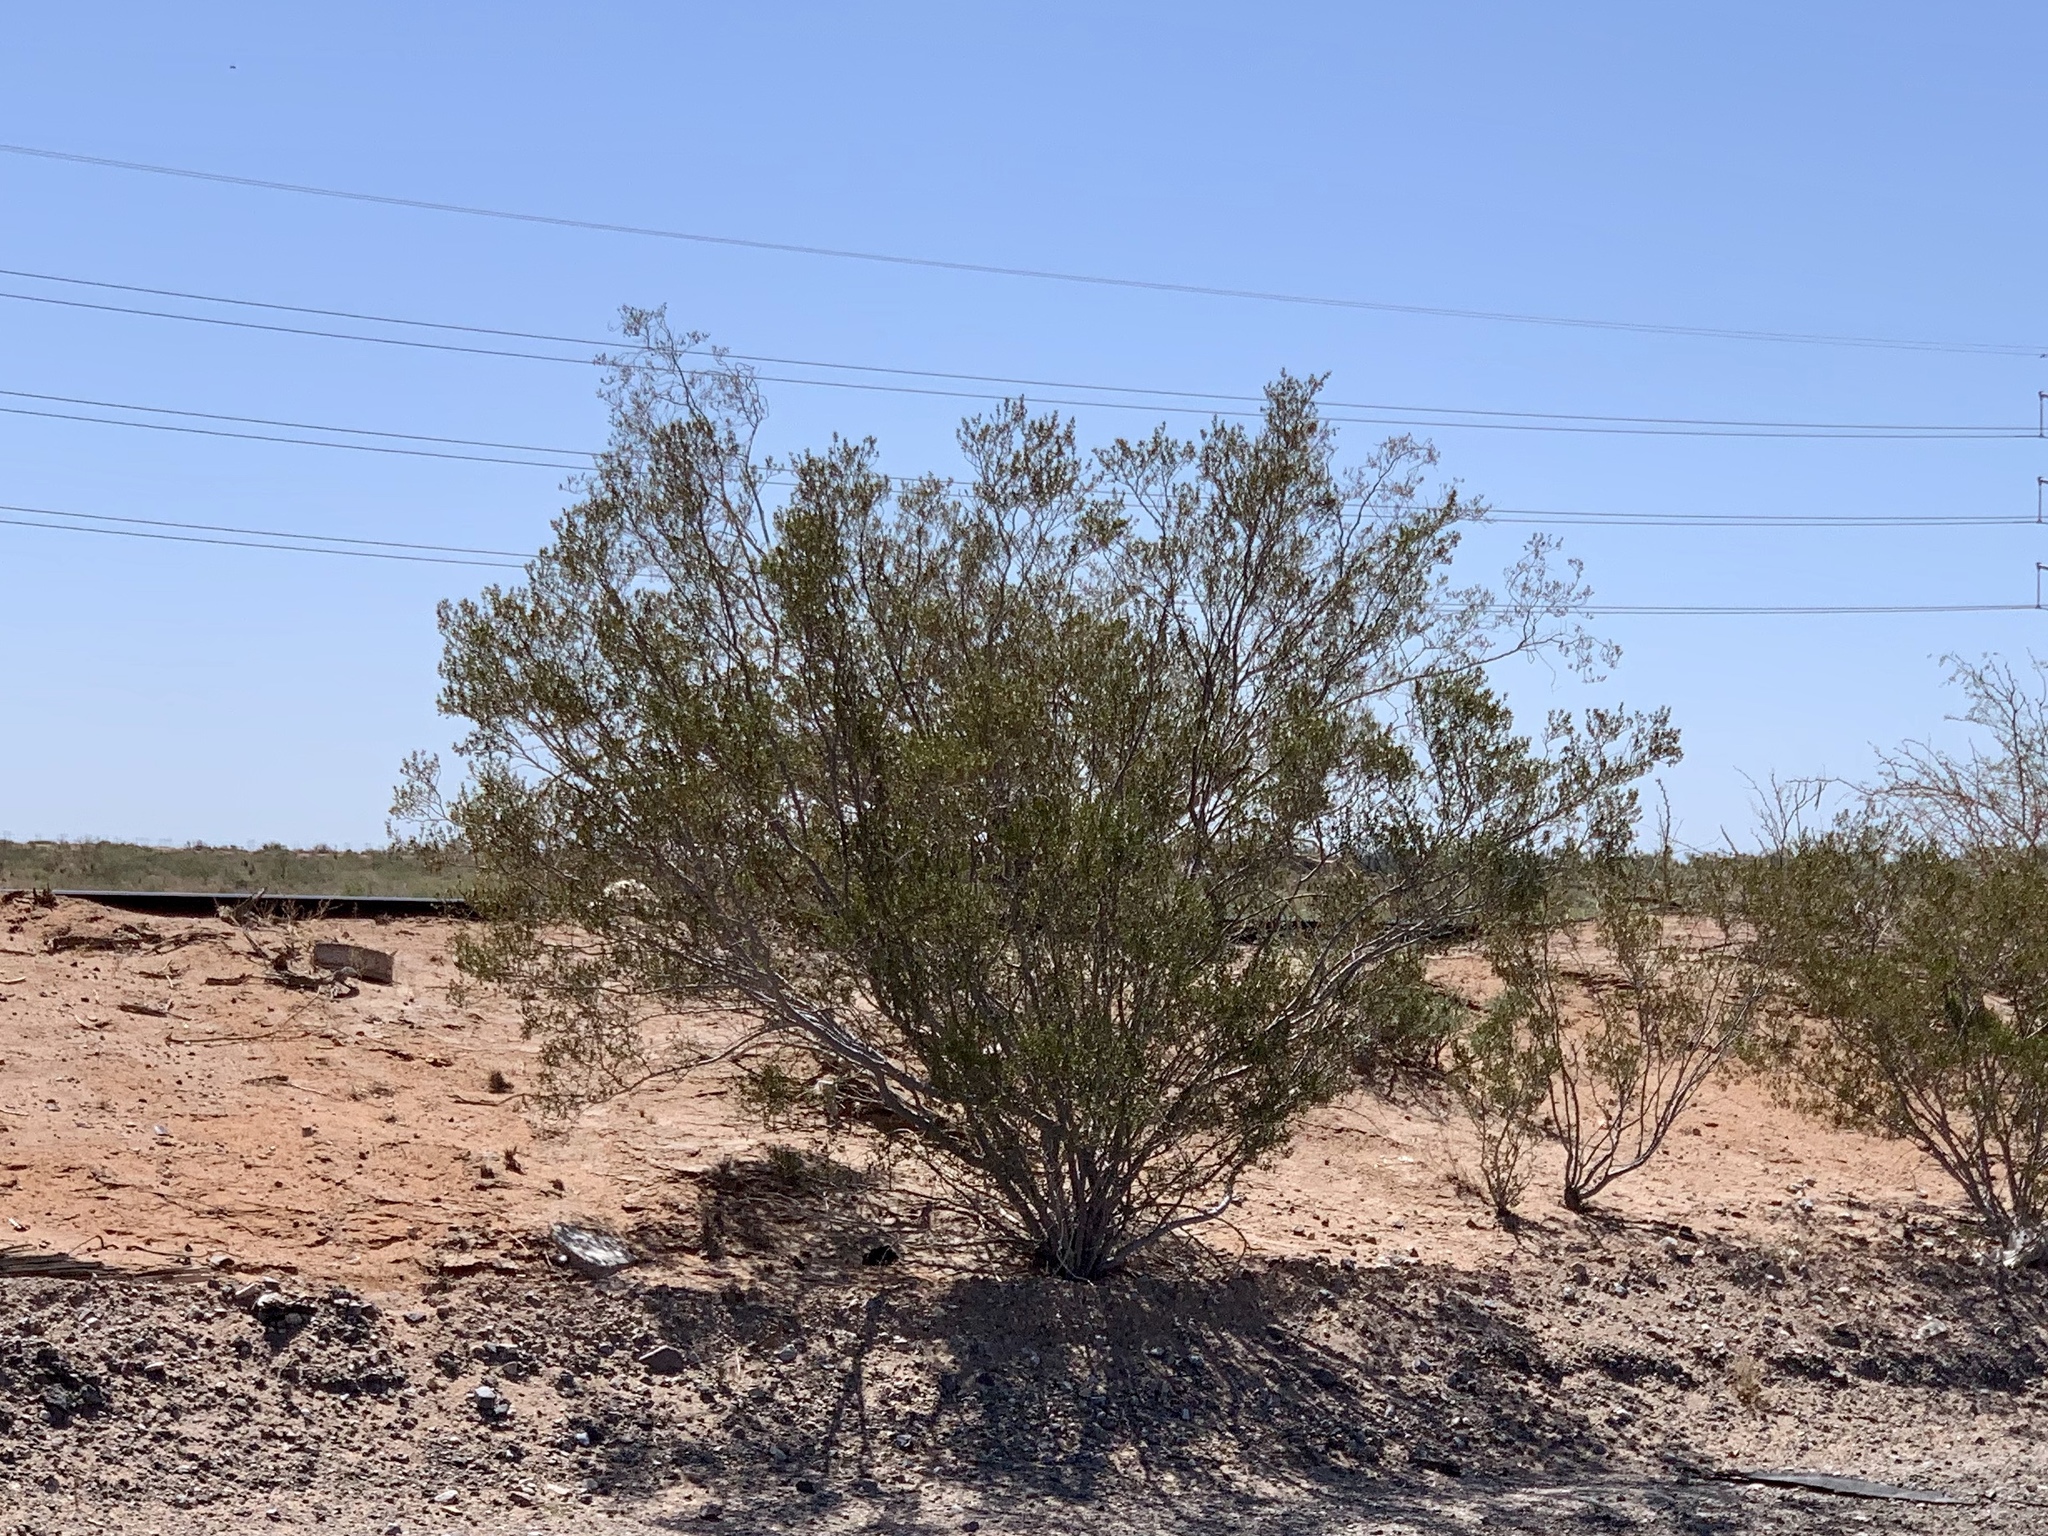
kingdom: Plantae
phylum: Tracheophyta
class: Magnoliopsida
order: Zygophyllales
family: Zygophyllaceae
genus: Larrea
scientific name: Larrea tridentata
